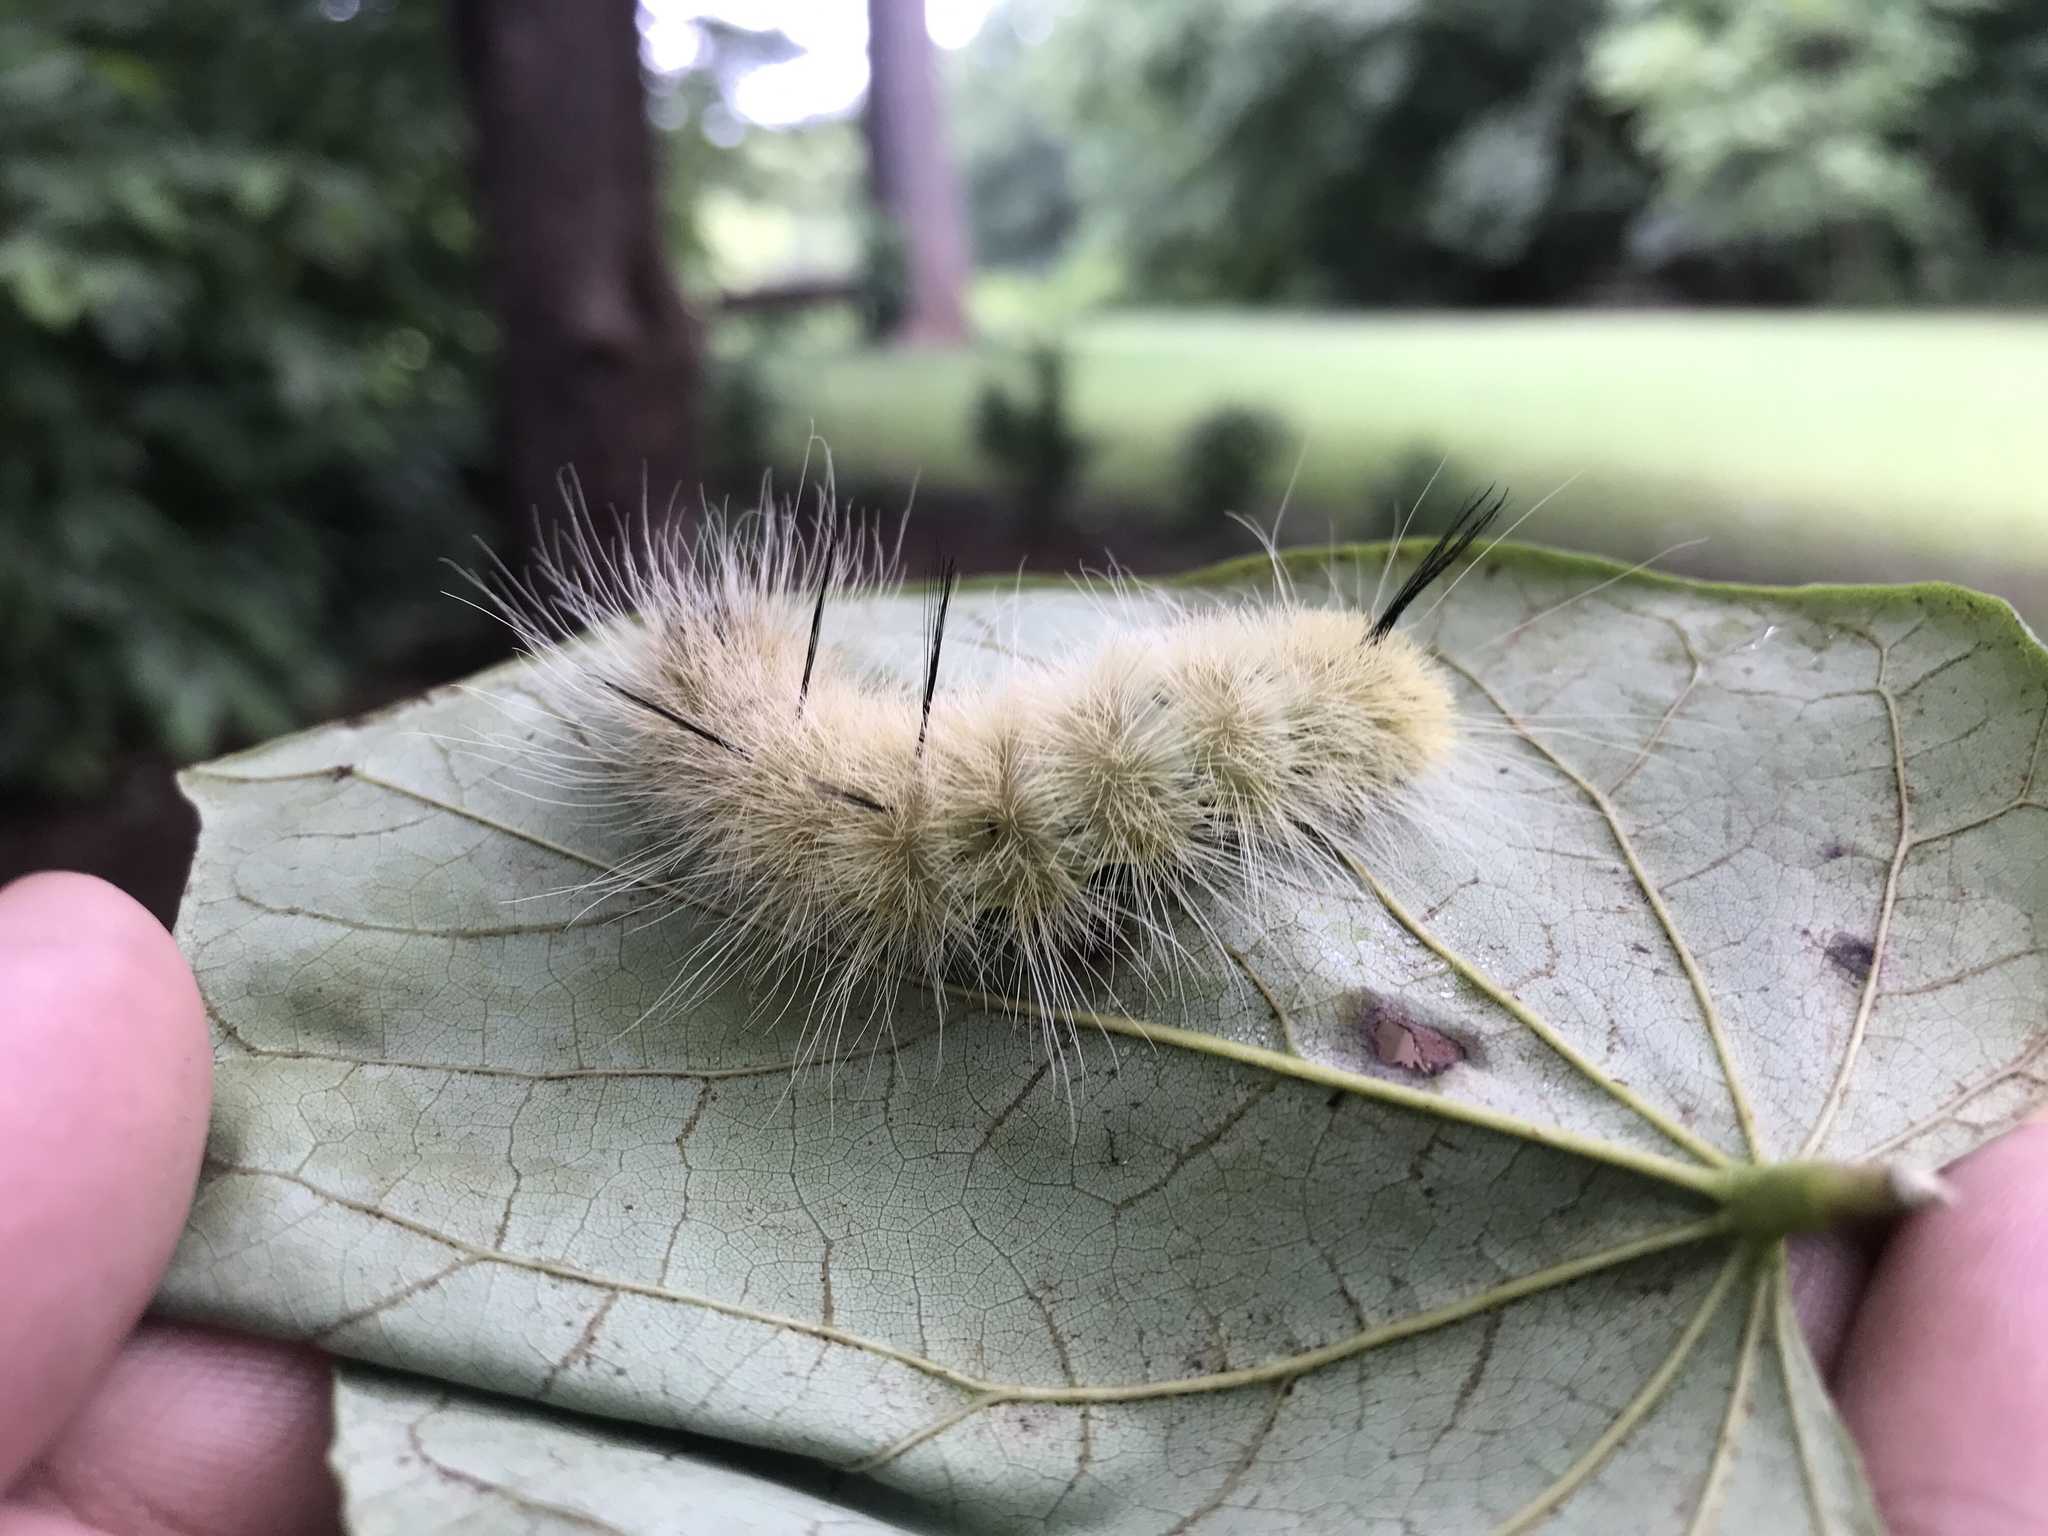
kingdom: Animalia
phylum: Arthropoda
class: Insecta
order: Lepidoptera
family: Noctuidae
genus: Acronicta
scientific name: Acronicta americana
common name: American dagger
